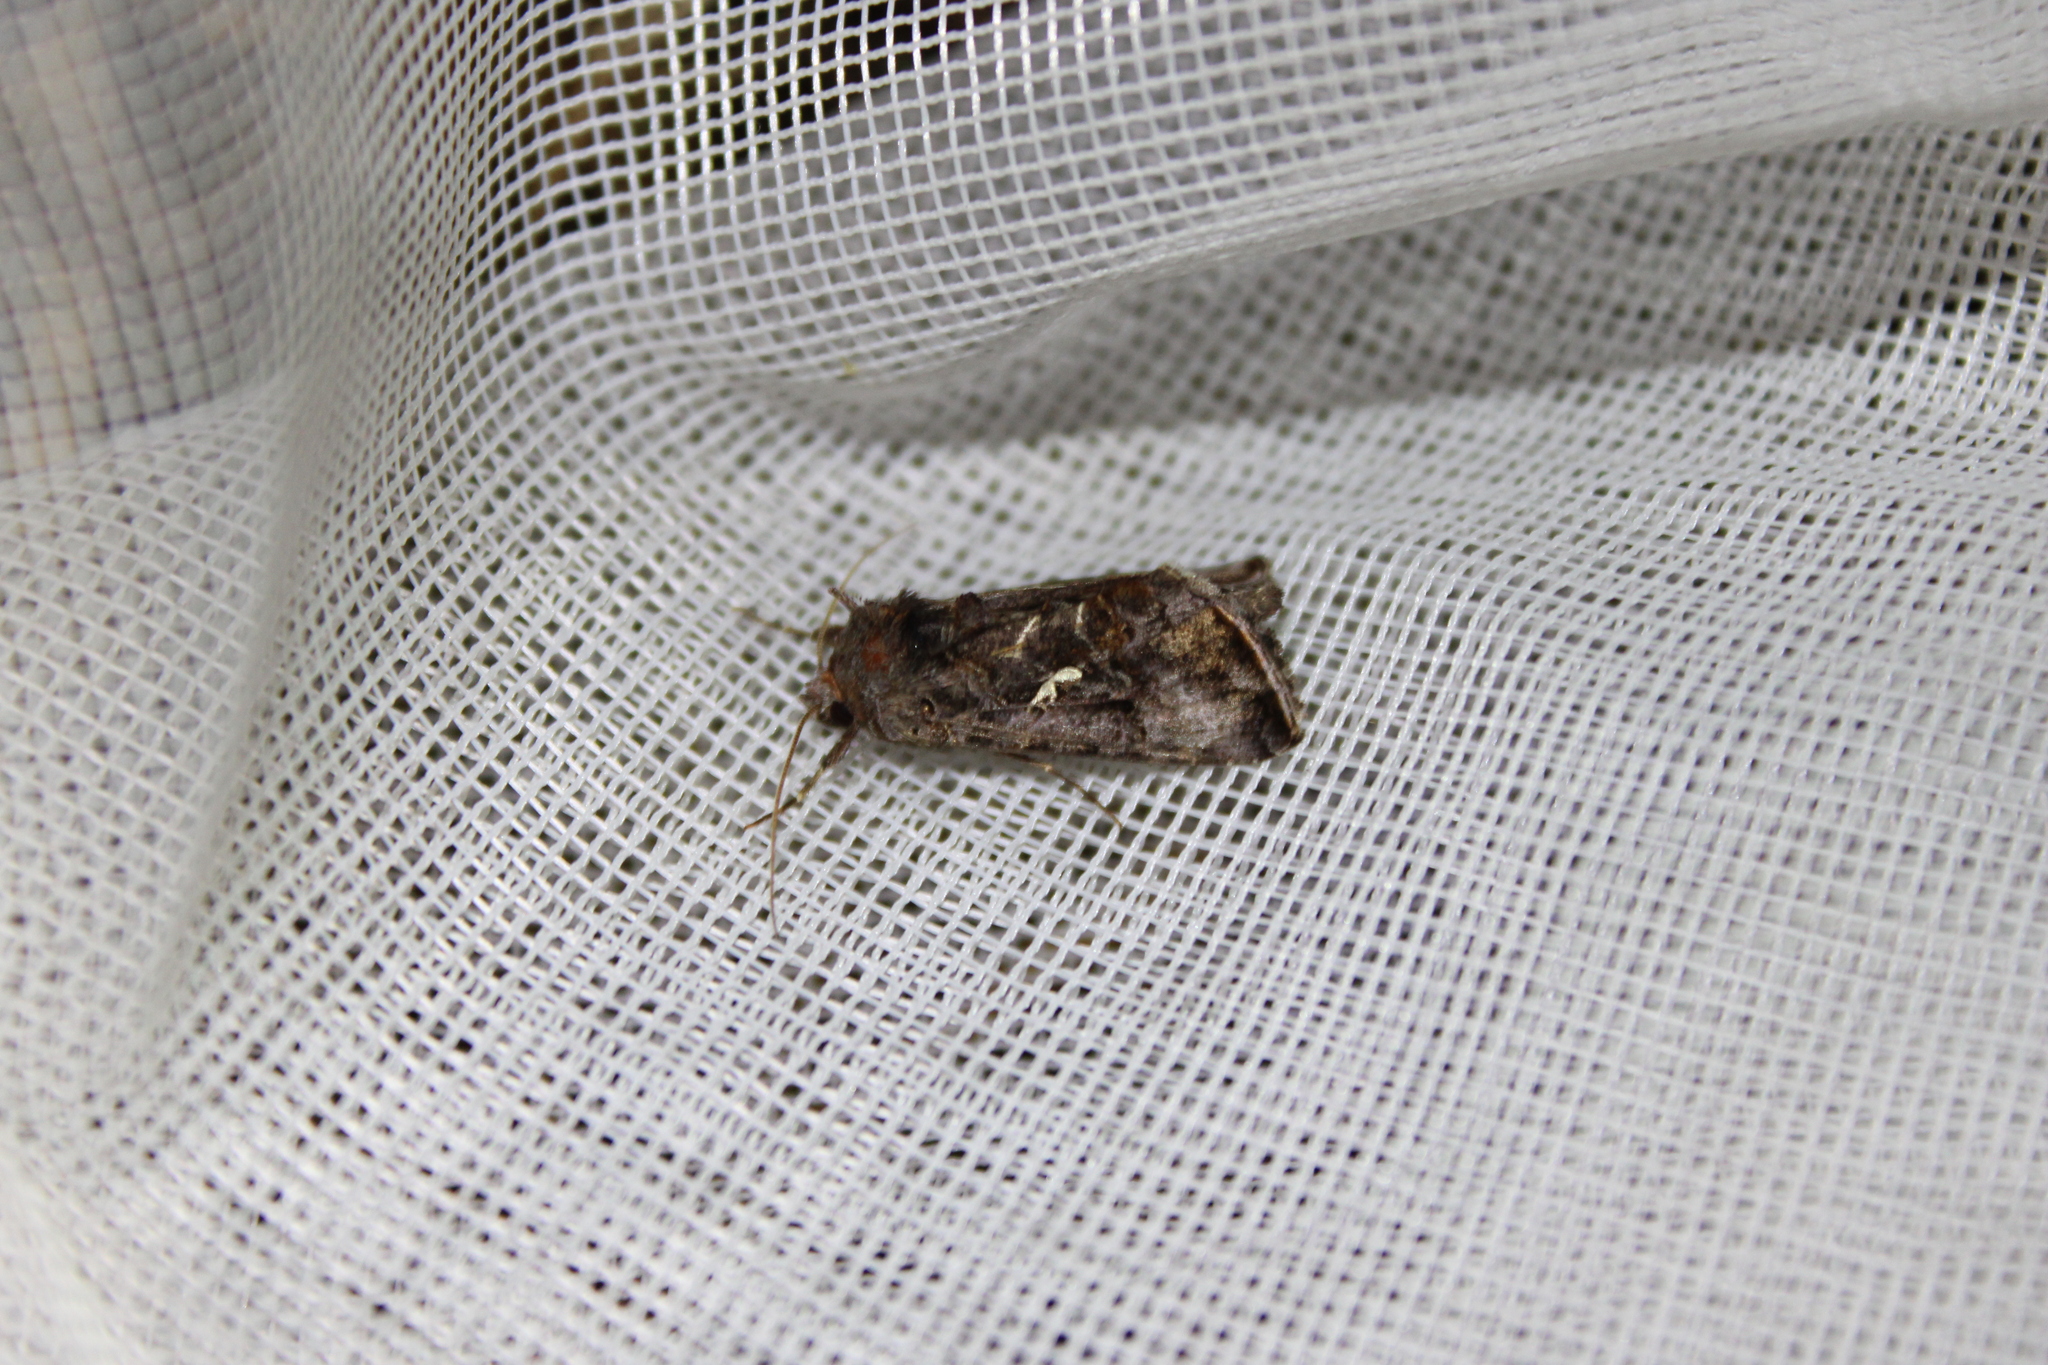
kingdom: Animalia
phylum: Arthropoda
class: Insecta
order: Lepidoptera
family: Noctuidae
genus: Autographa
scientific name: Autographa precationis
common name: Common looper moth
